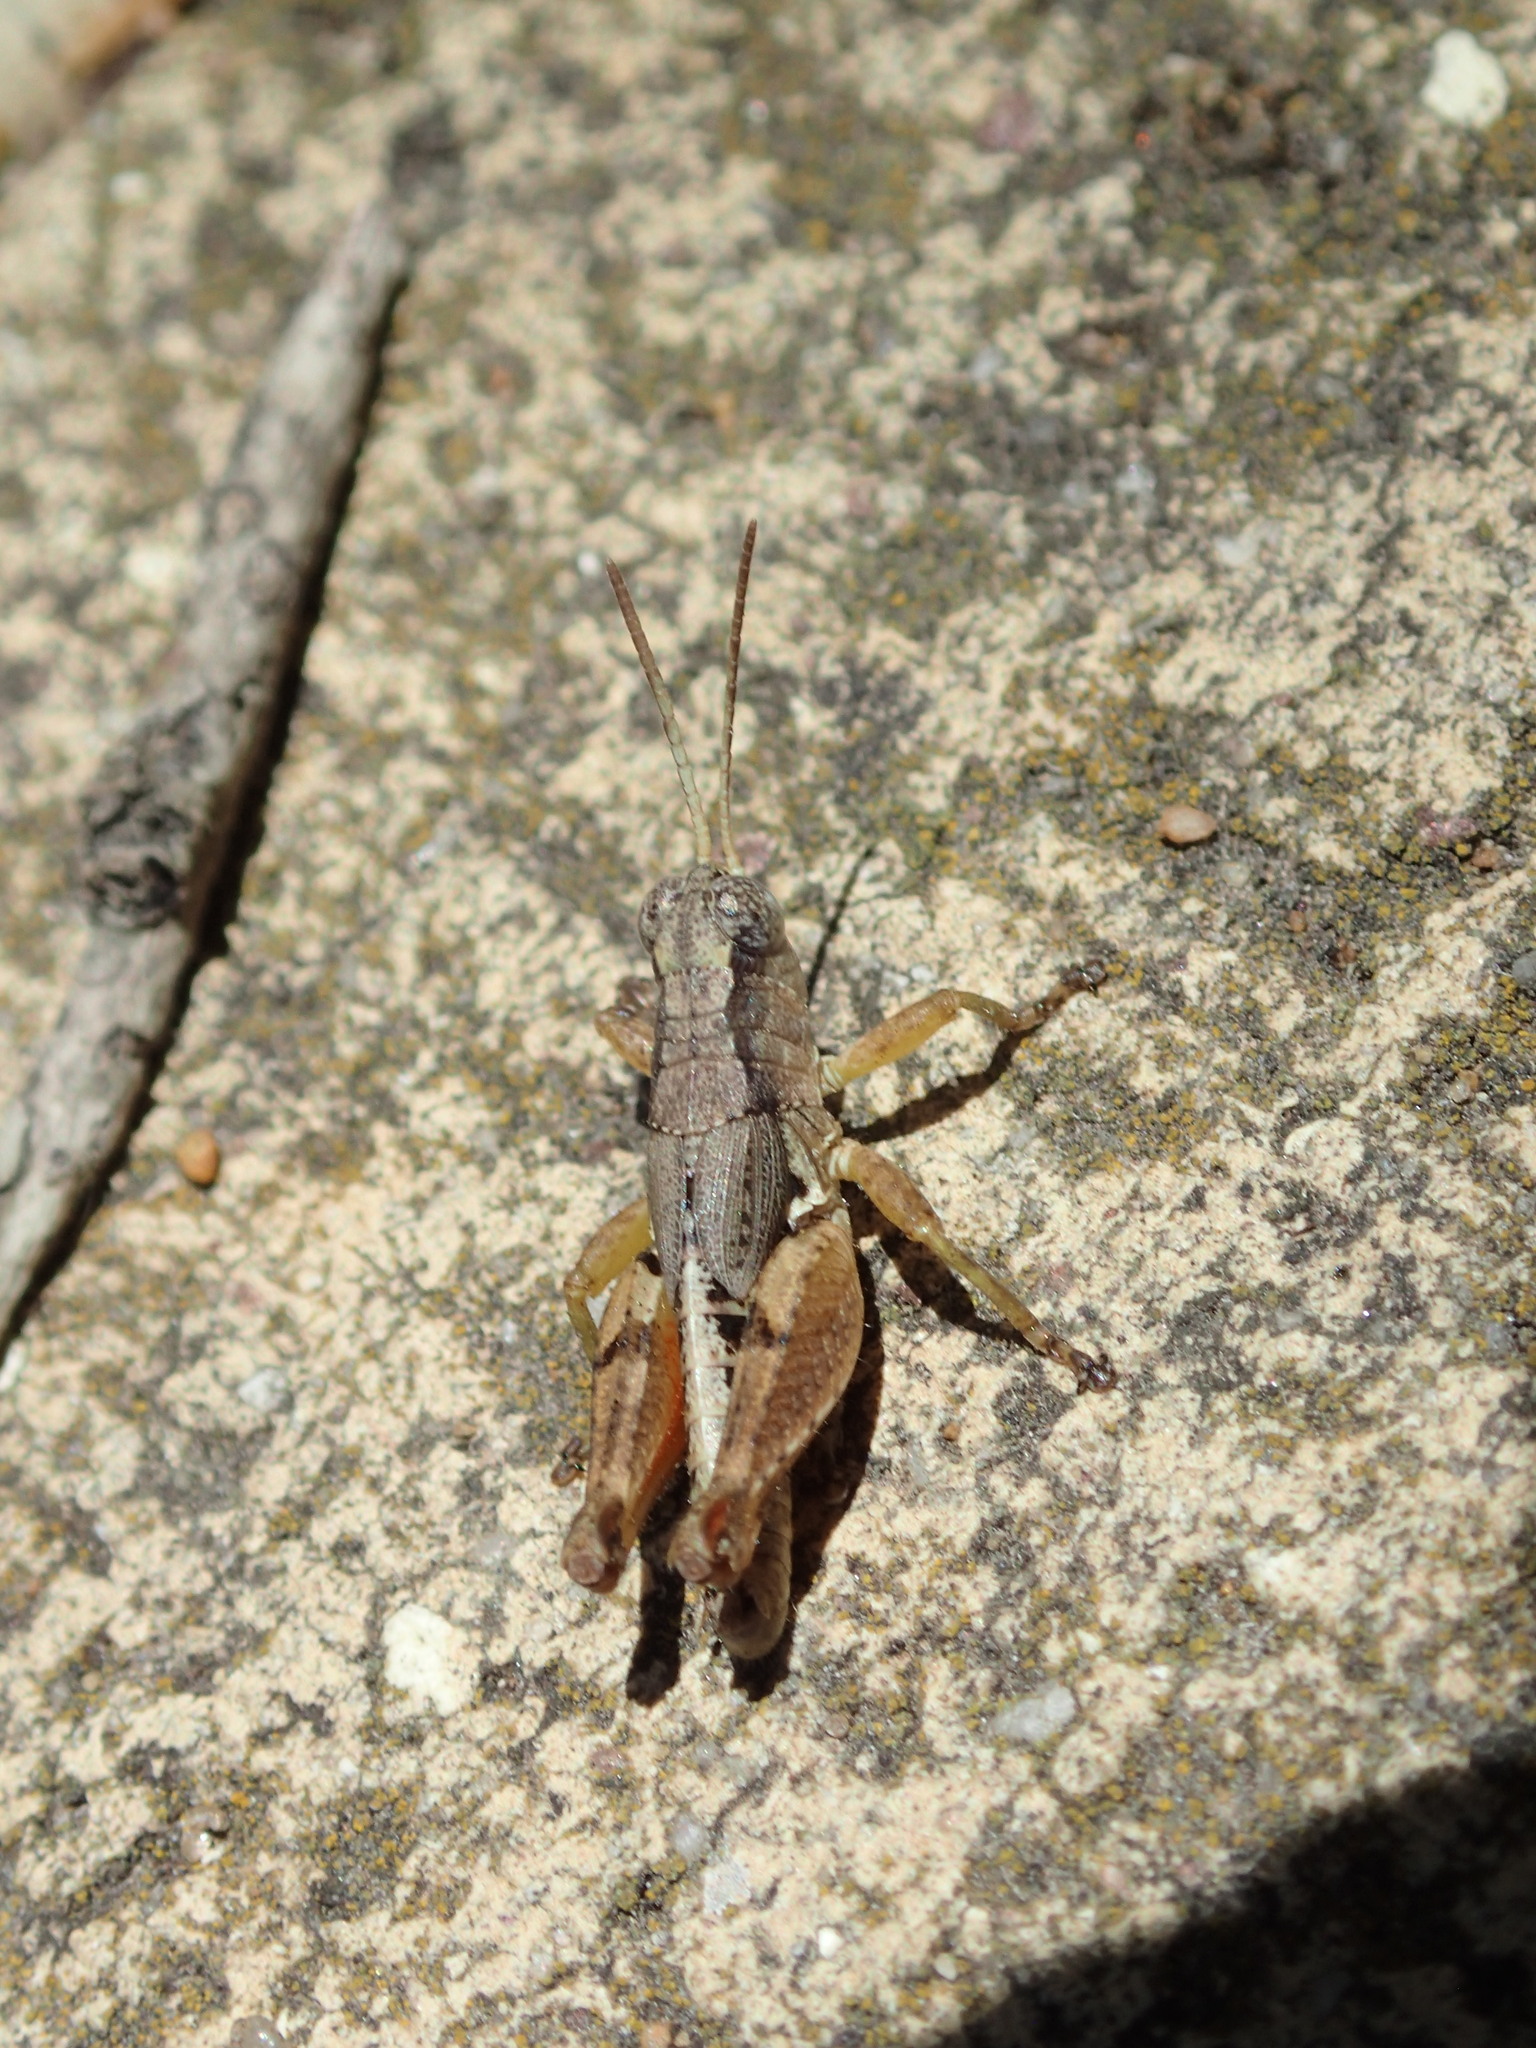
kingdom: Animalia
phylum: Arthropoda
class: Insecta
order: Orthoptera
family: Acrididae
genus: Phaulacridium
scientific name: Phaulacridium crassum
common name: Robust phaulacridium
